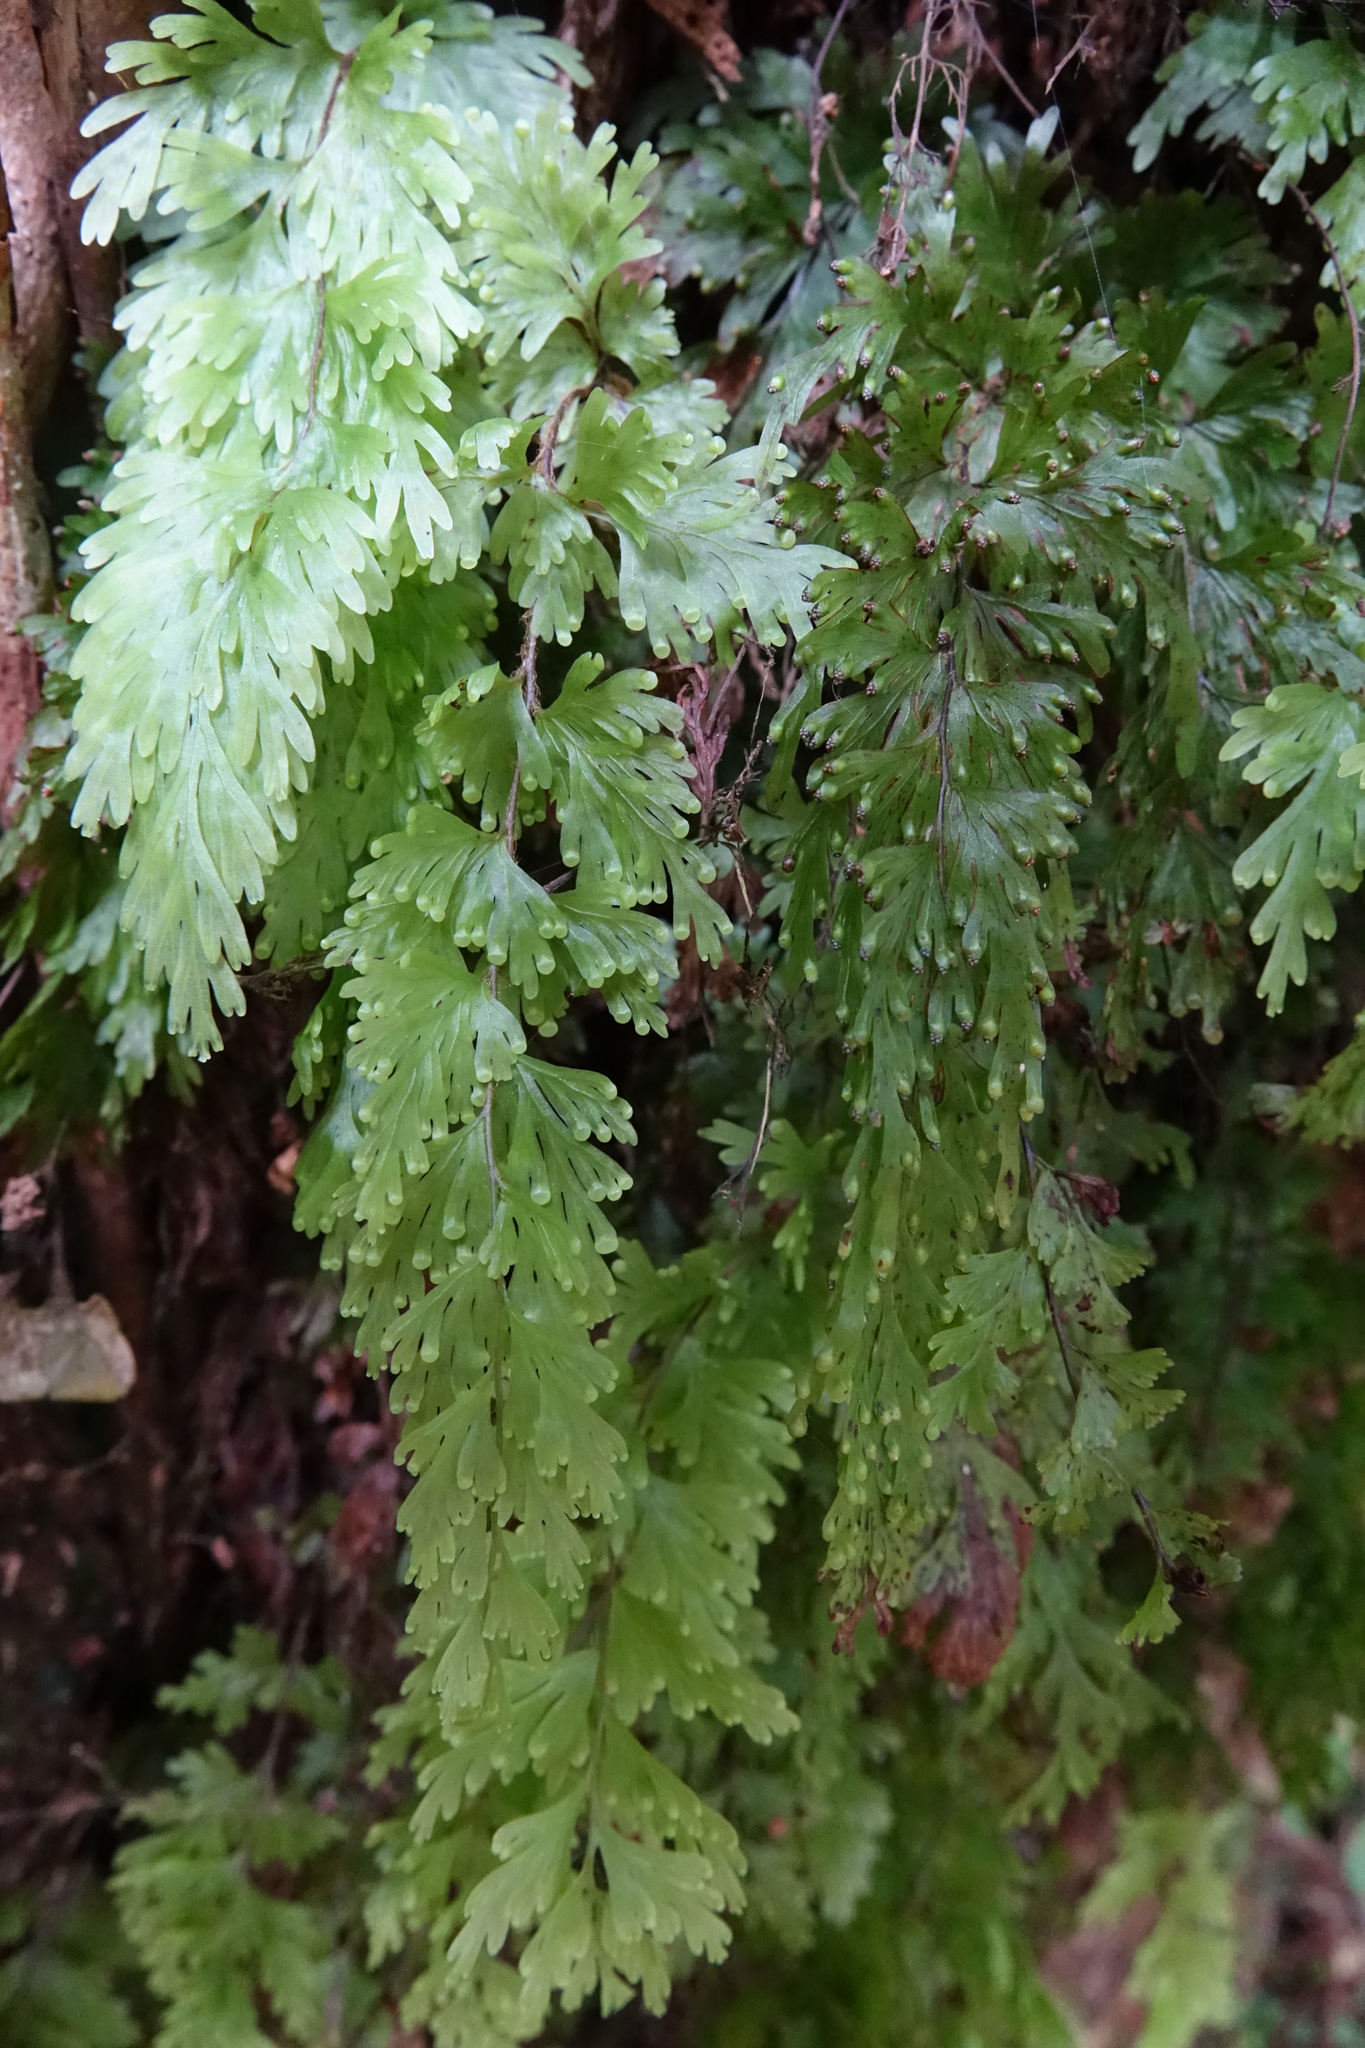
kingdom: Plantae
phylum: Tracheophyta
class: Polypodiopsida
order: Hymenophyllales
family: Hymenophyllaceae
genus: Hymenophyllum
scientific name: Hymenophyllum flabellatum
